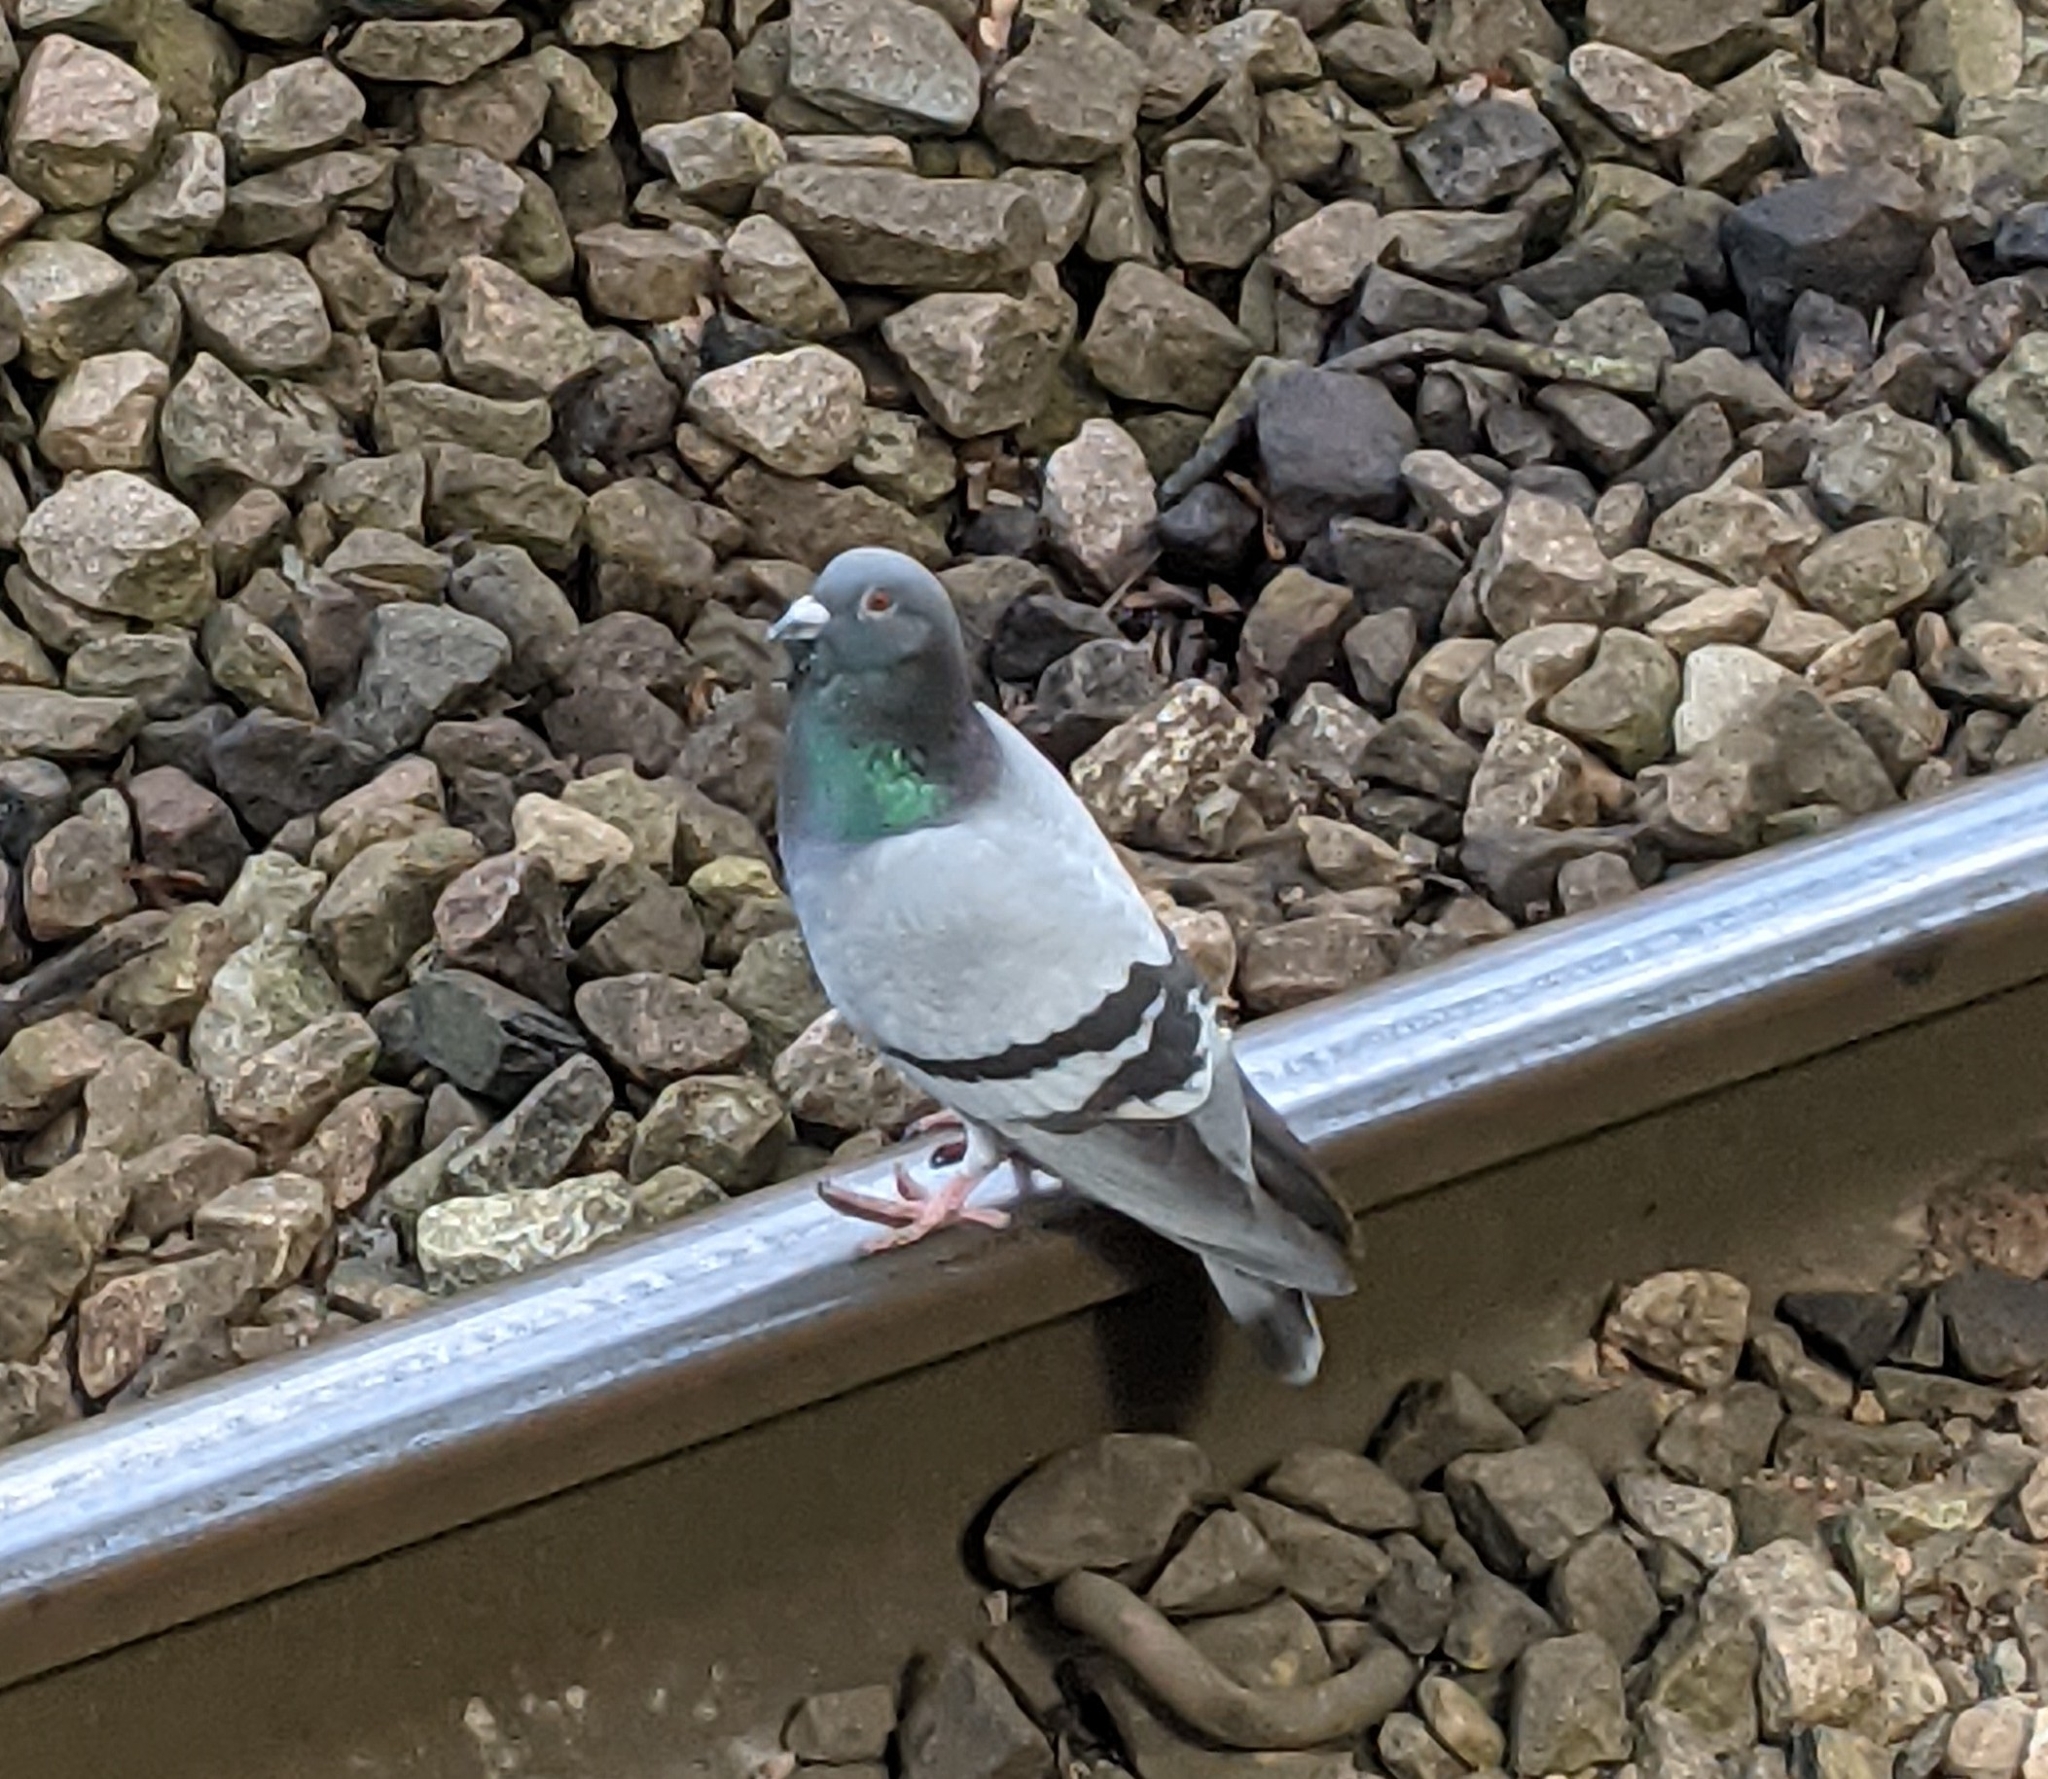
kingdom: Animalia
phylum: Chordata
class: Aves
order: Columbiformes
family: Columbidae
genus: Columba
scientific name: Columba livia
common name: Rock pigeon
